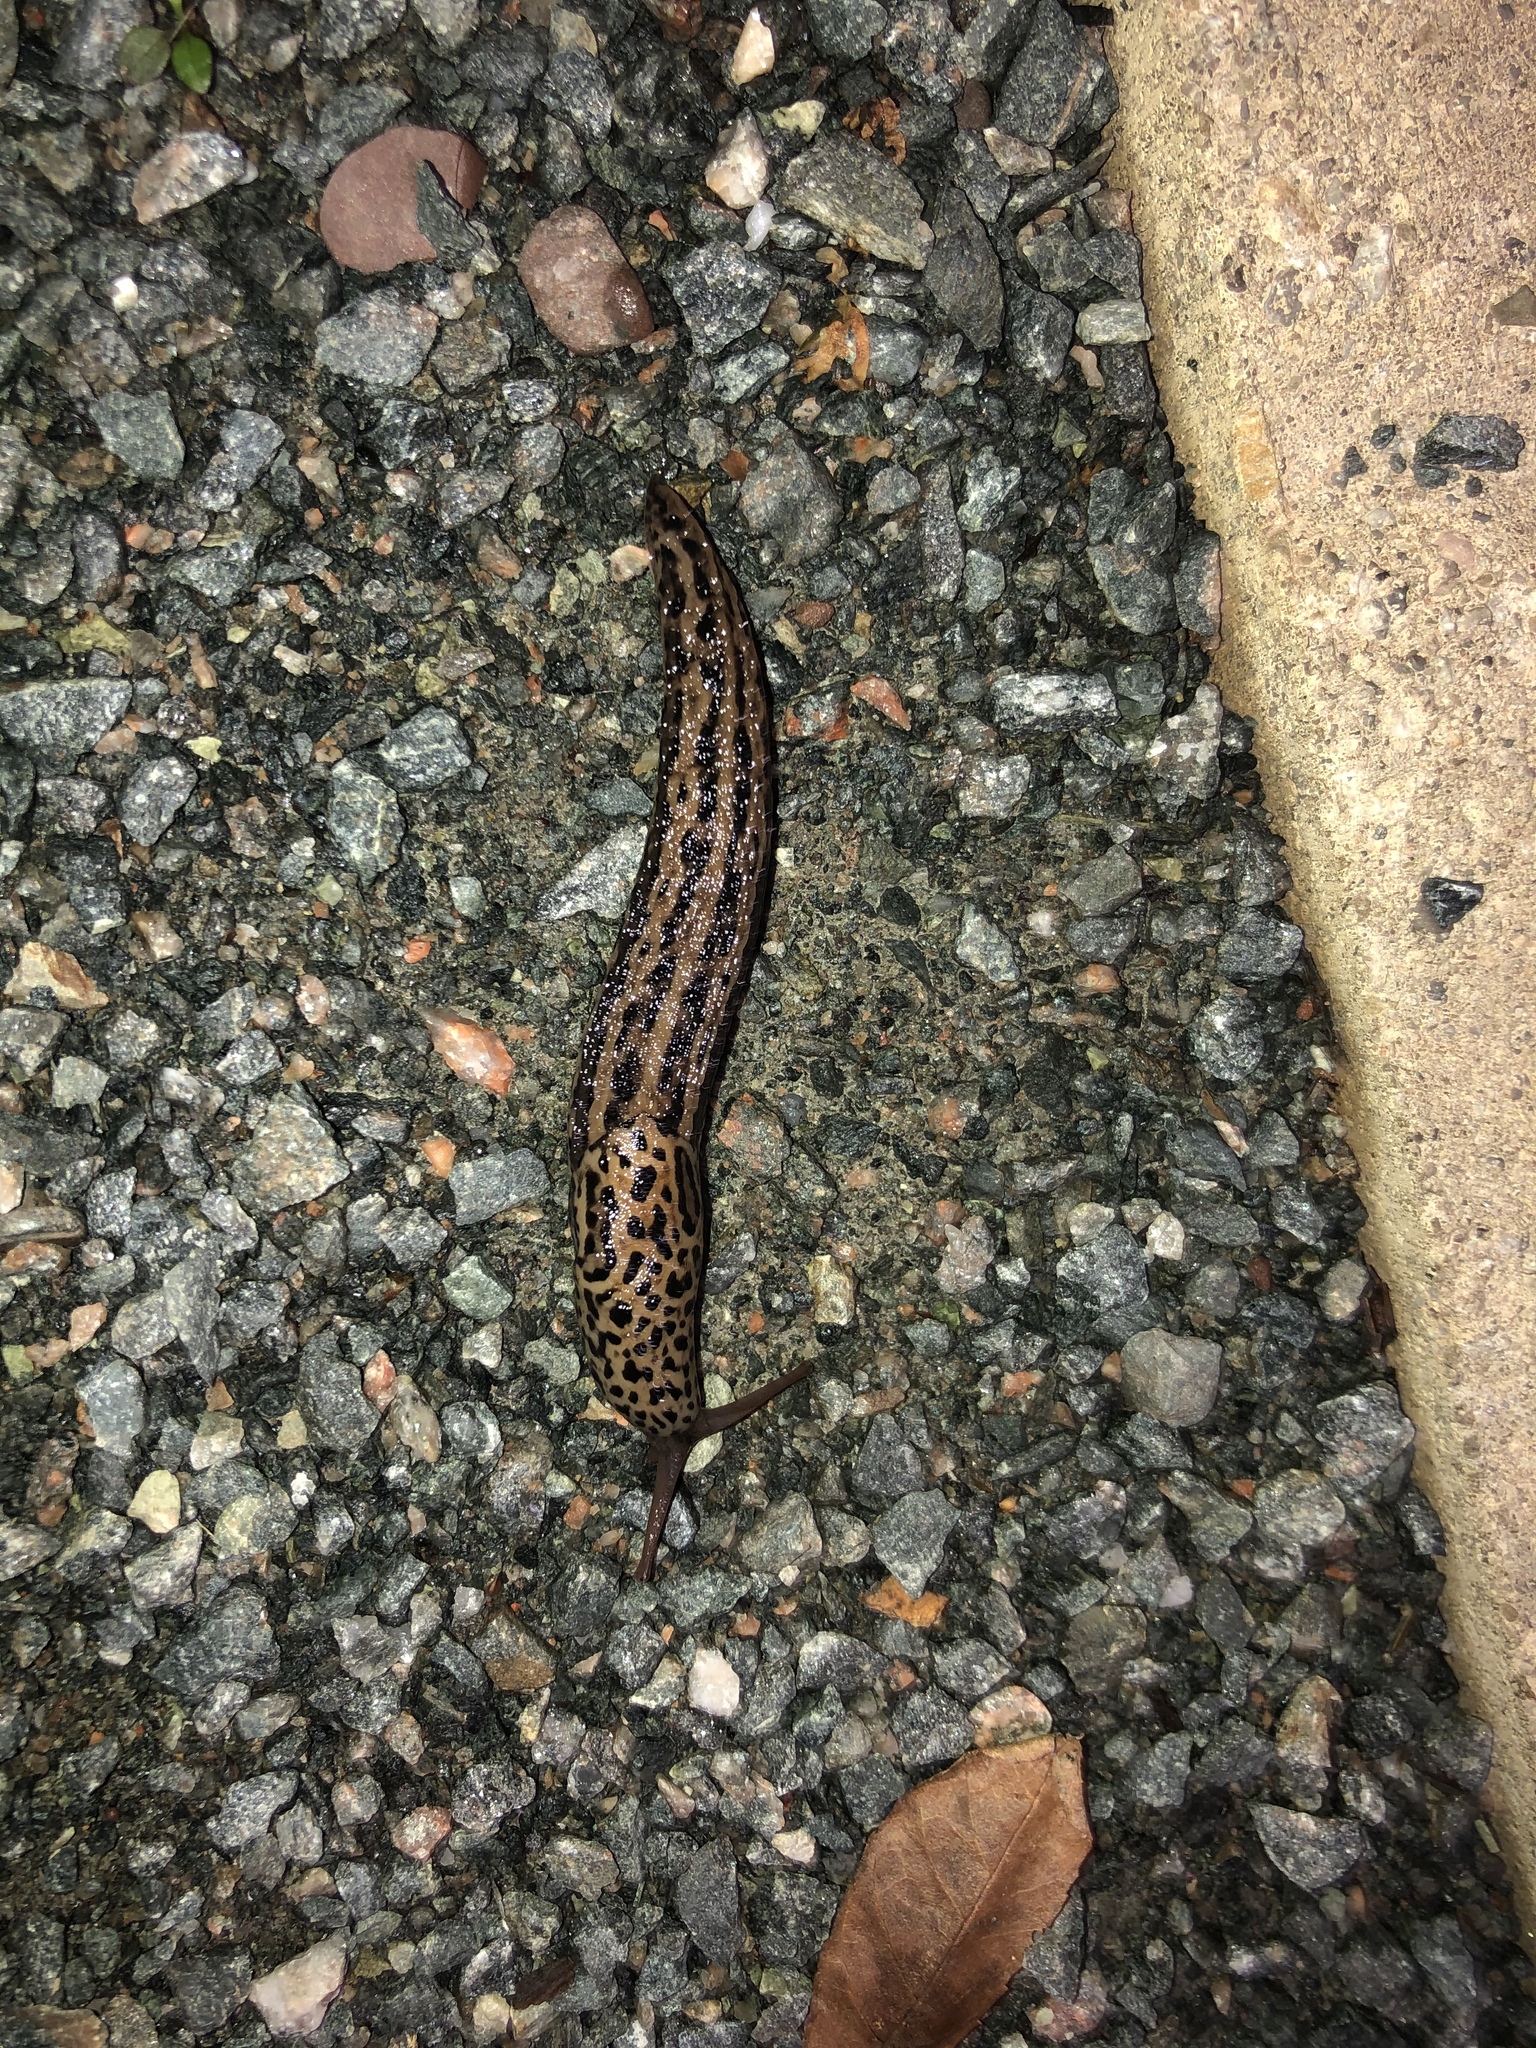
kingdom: Animalia
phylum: Mollusca
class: Gastropoda
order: Stylommatophora
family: Limacidae
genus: Limax
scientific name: Limax maximus
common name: Great grey slug
